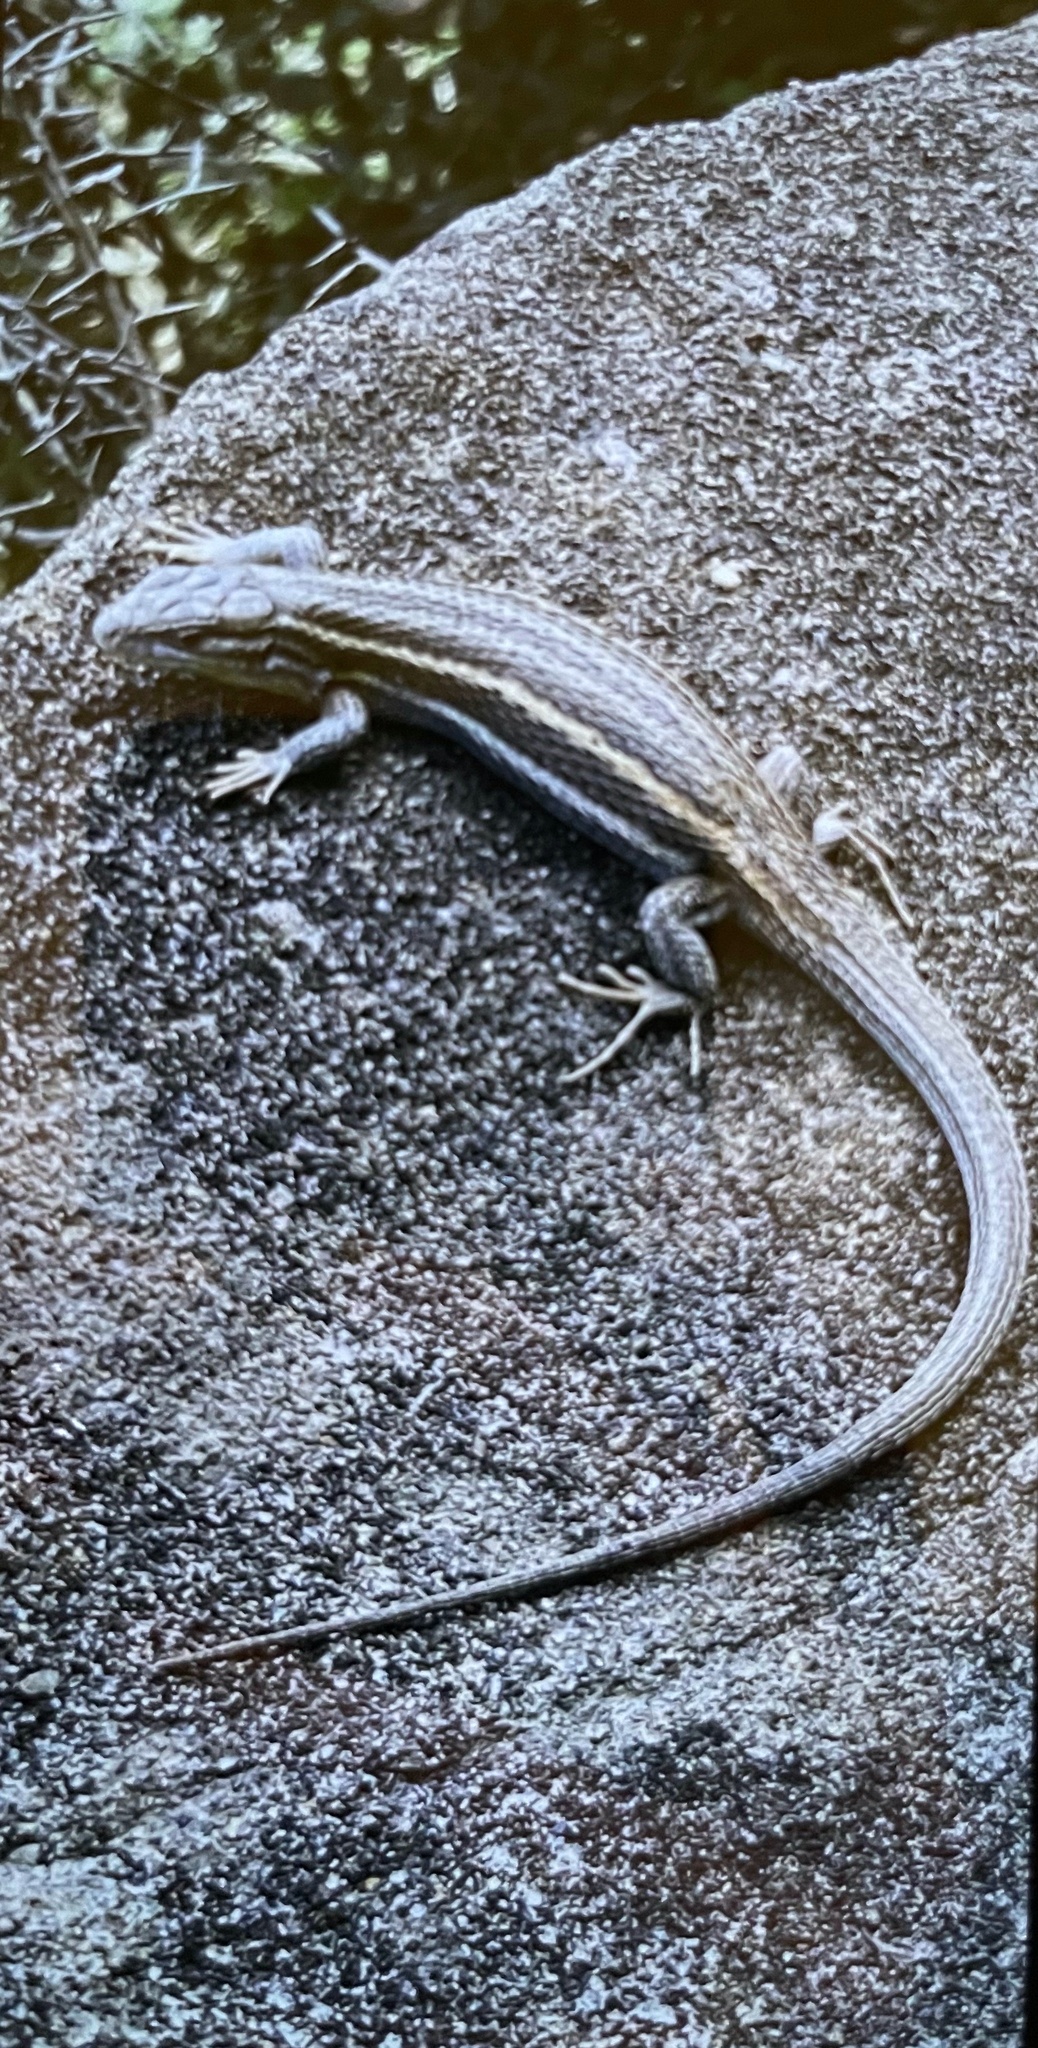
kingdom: Animalia
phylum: Chordata
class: Squamata
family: Lacertidae
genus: Psammodromus
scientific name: Psammodromus algirus
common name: Algerian psammodromus
